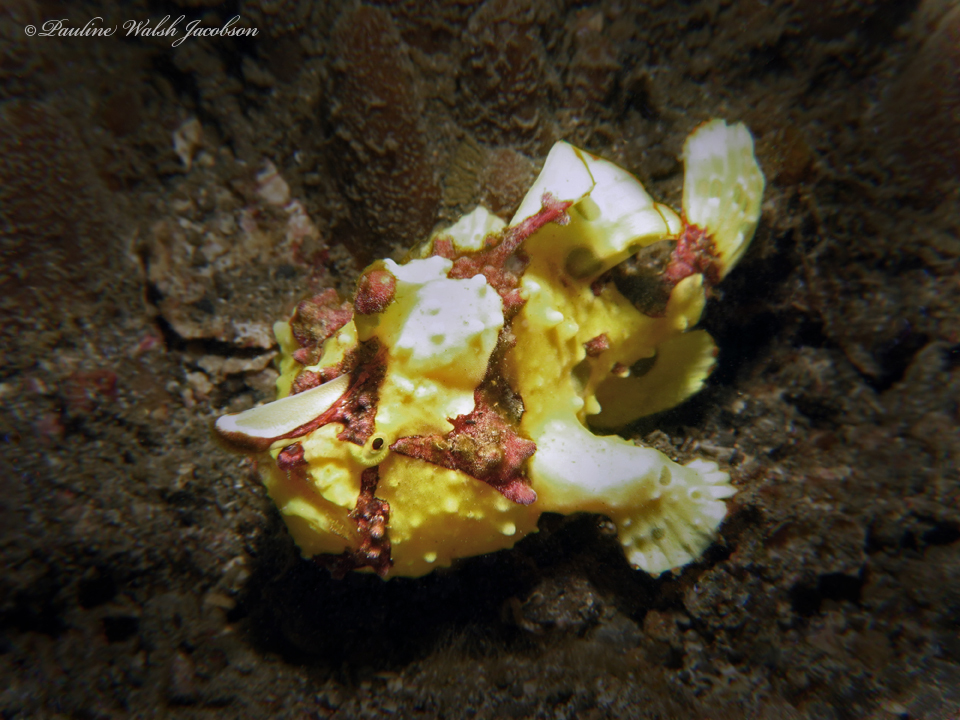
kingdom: Animalia
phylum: Chordata
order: Lophiiformes
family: Antennariidae
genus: Antennarius
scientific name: Antennarius maculatus
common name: Warty frogfish
